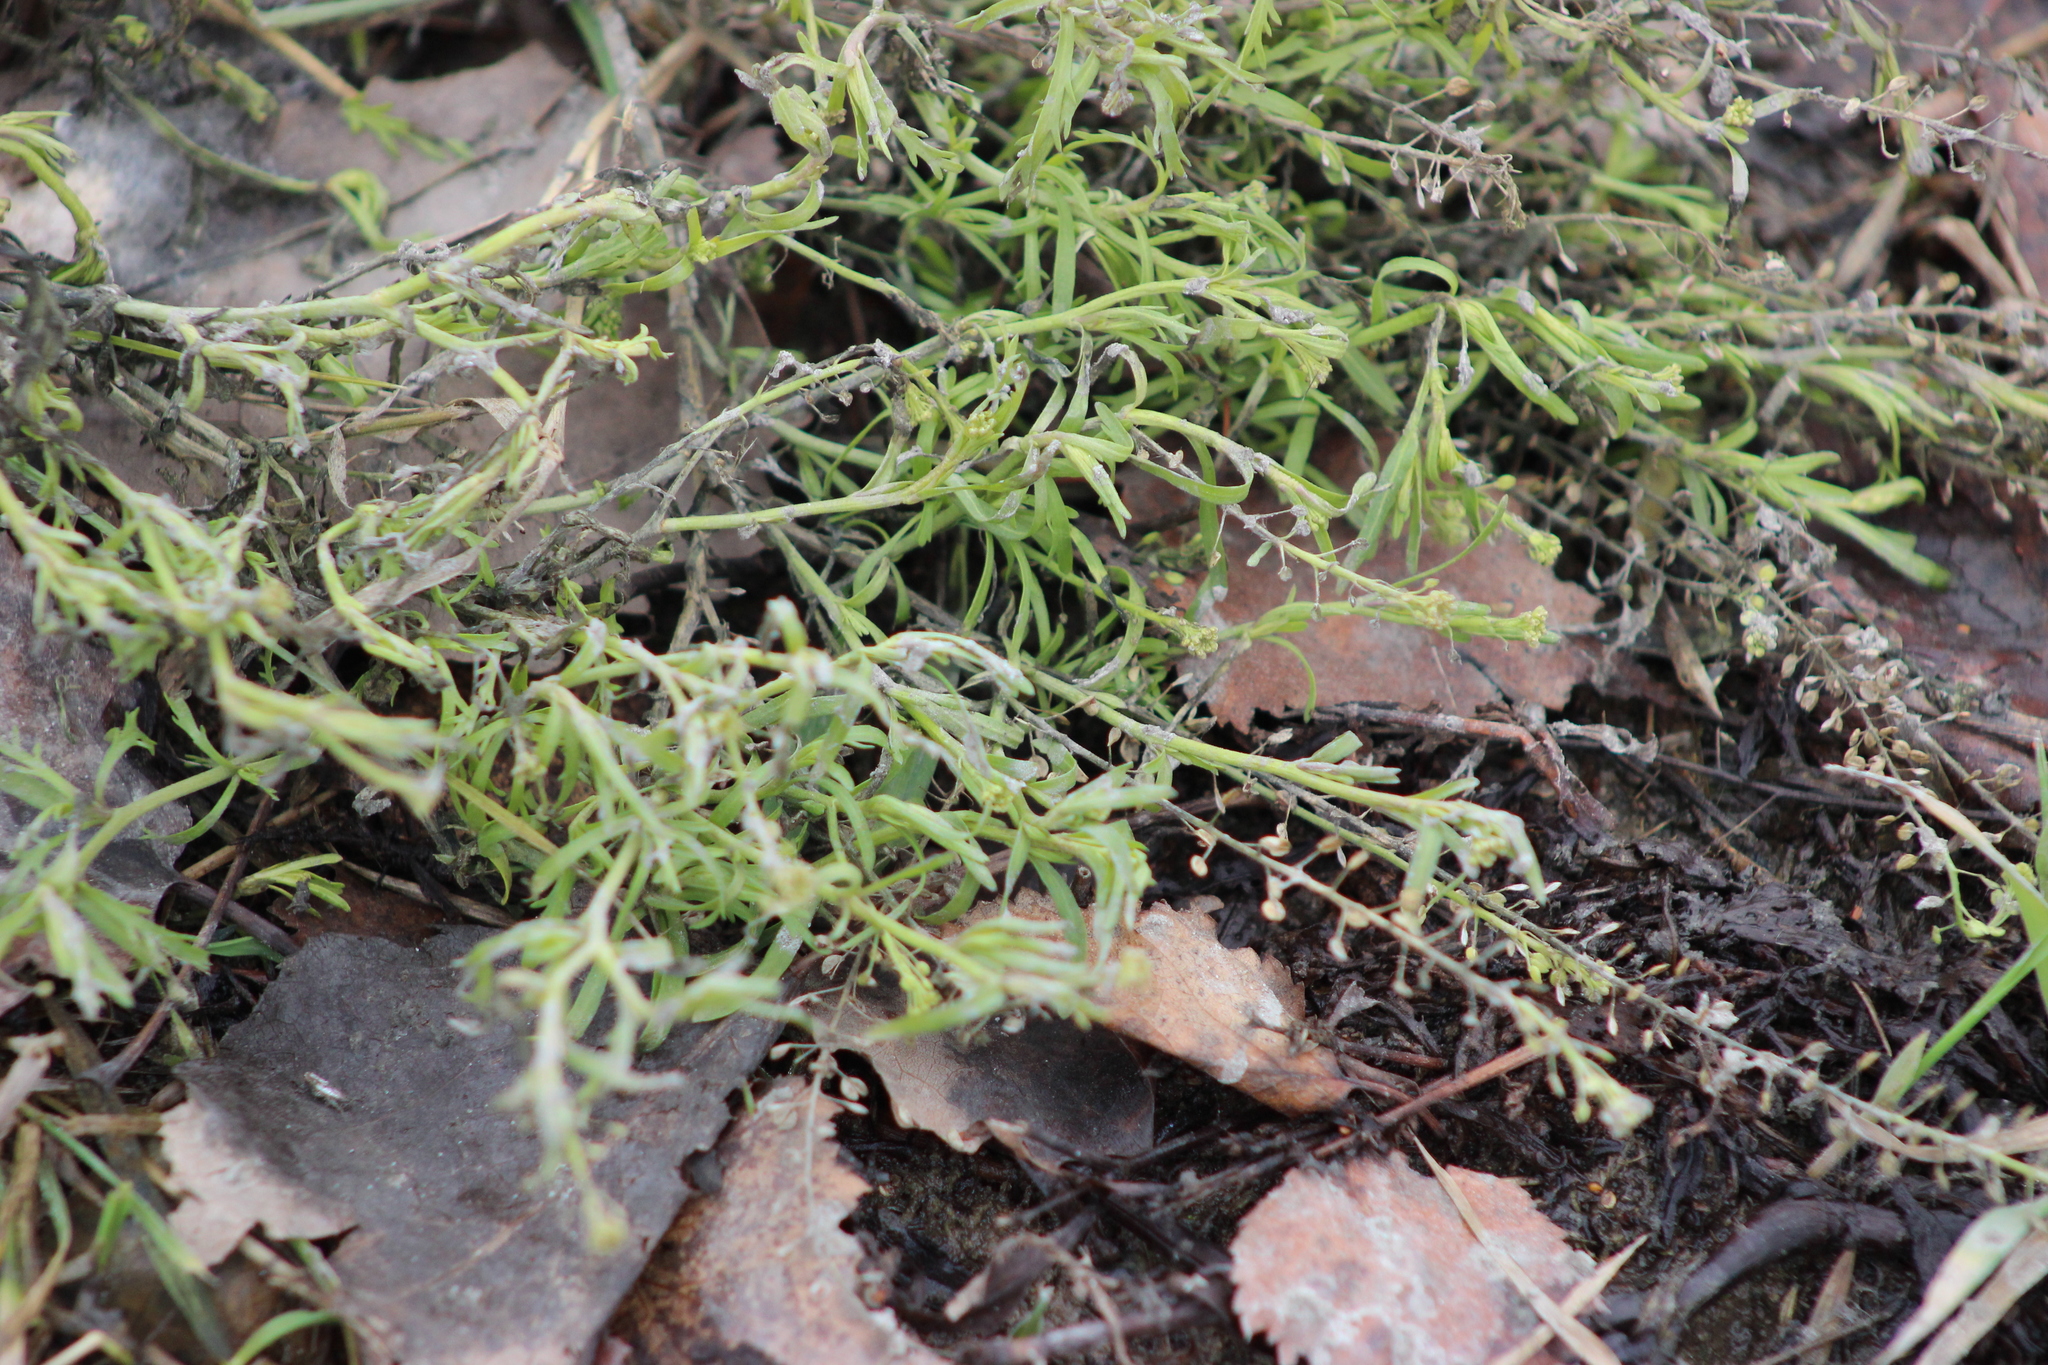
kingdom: Plantae
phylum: Tracheophyta
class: Magnoliopsida
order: Brassicales
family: Brassicaceae
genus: Lepidium
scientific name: Lepidium ruderale
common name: Narrow-leaved pepperwort
